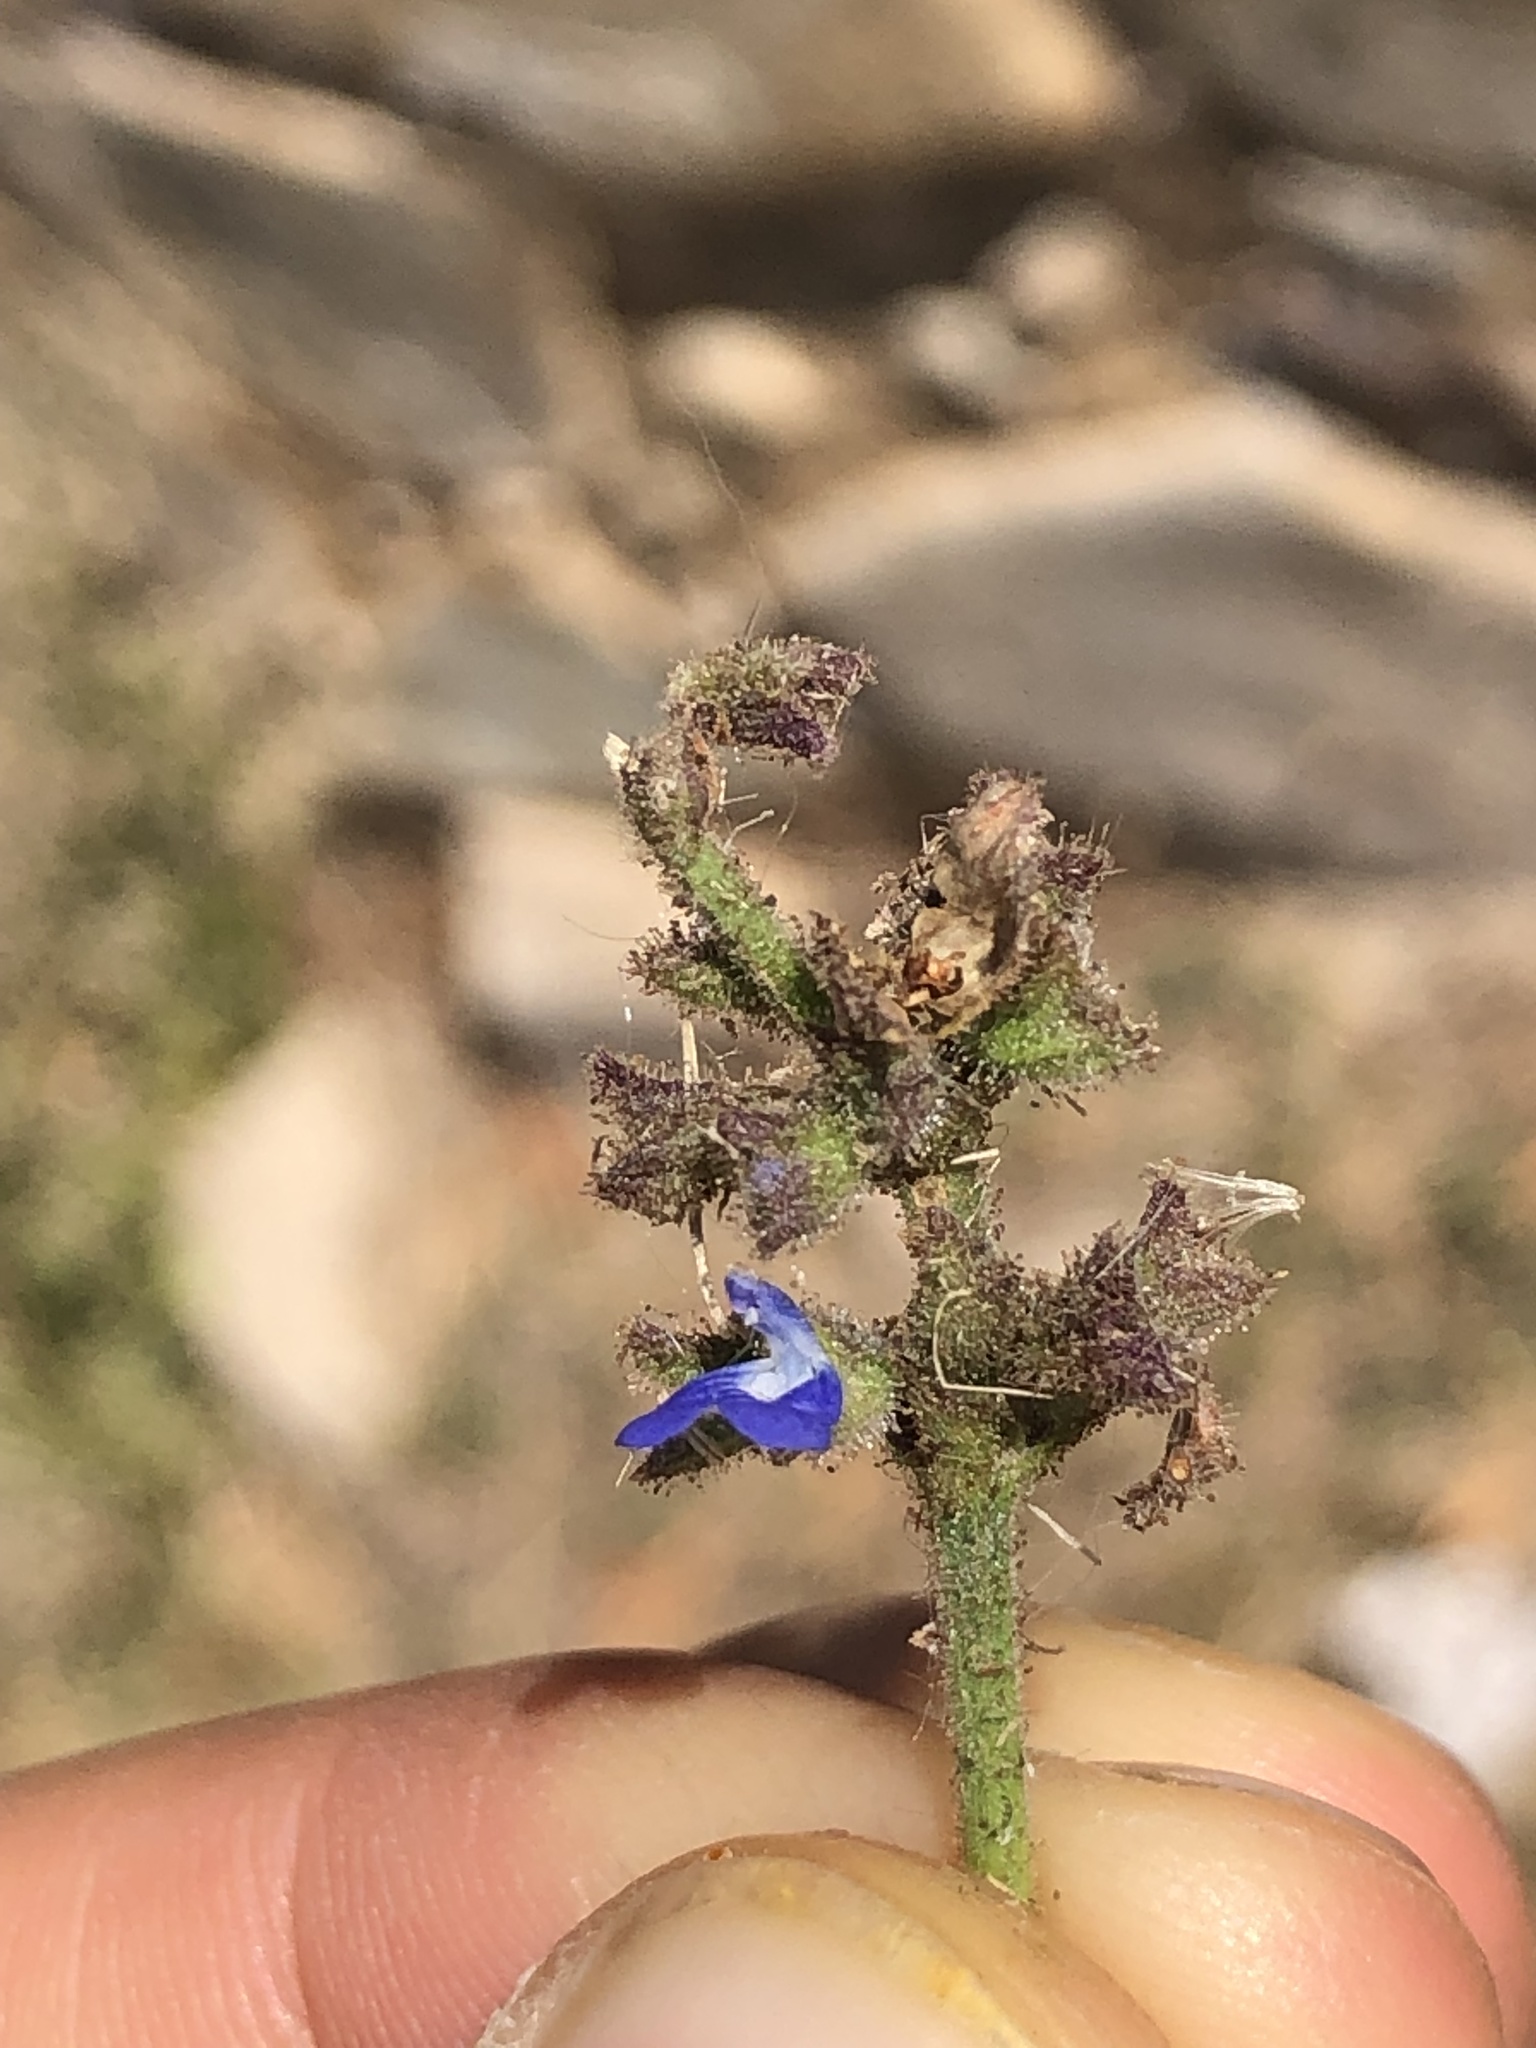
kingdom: Plantae
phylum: Tracheophyta
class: Magnoliopsida
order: Lamiales
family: Lamiaceae
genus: Salvia
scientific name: Salvia misella
